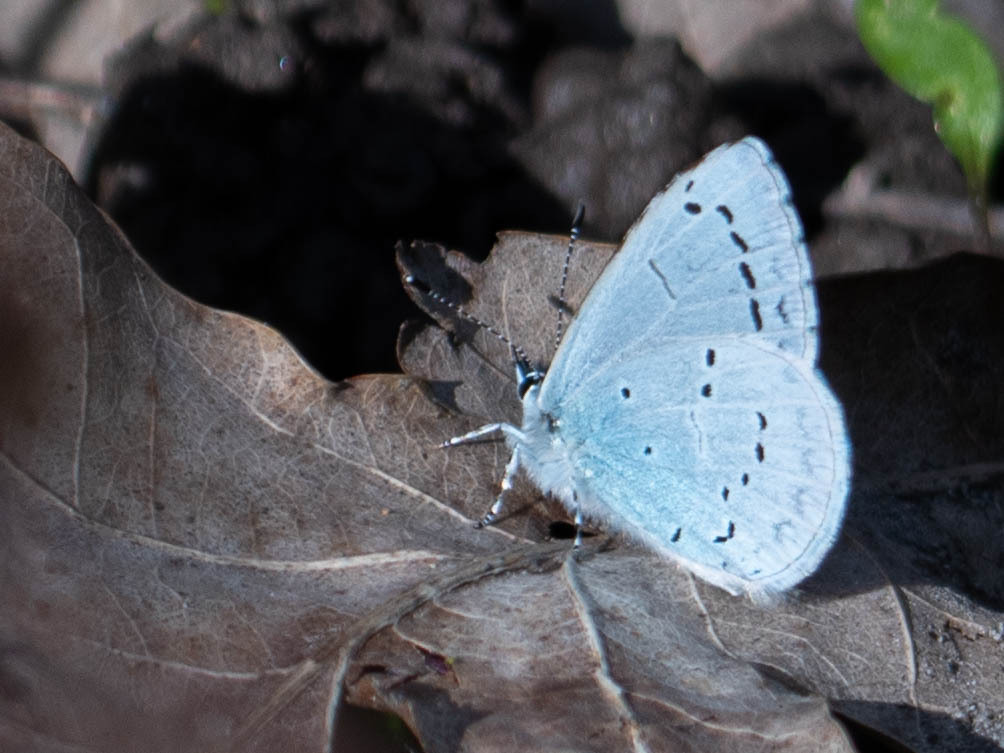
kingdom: Animalia
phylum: Arthropoda
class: Insecta
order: Lepidoptera
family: Lycaenidae
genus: Celastrina
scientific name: Celastrina argiolus
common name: Holly blue
